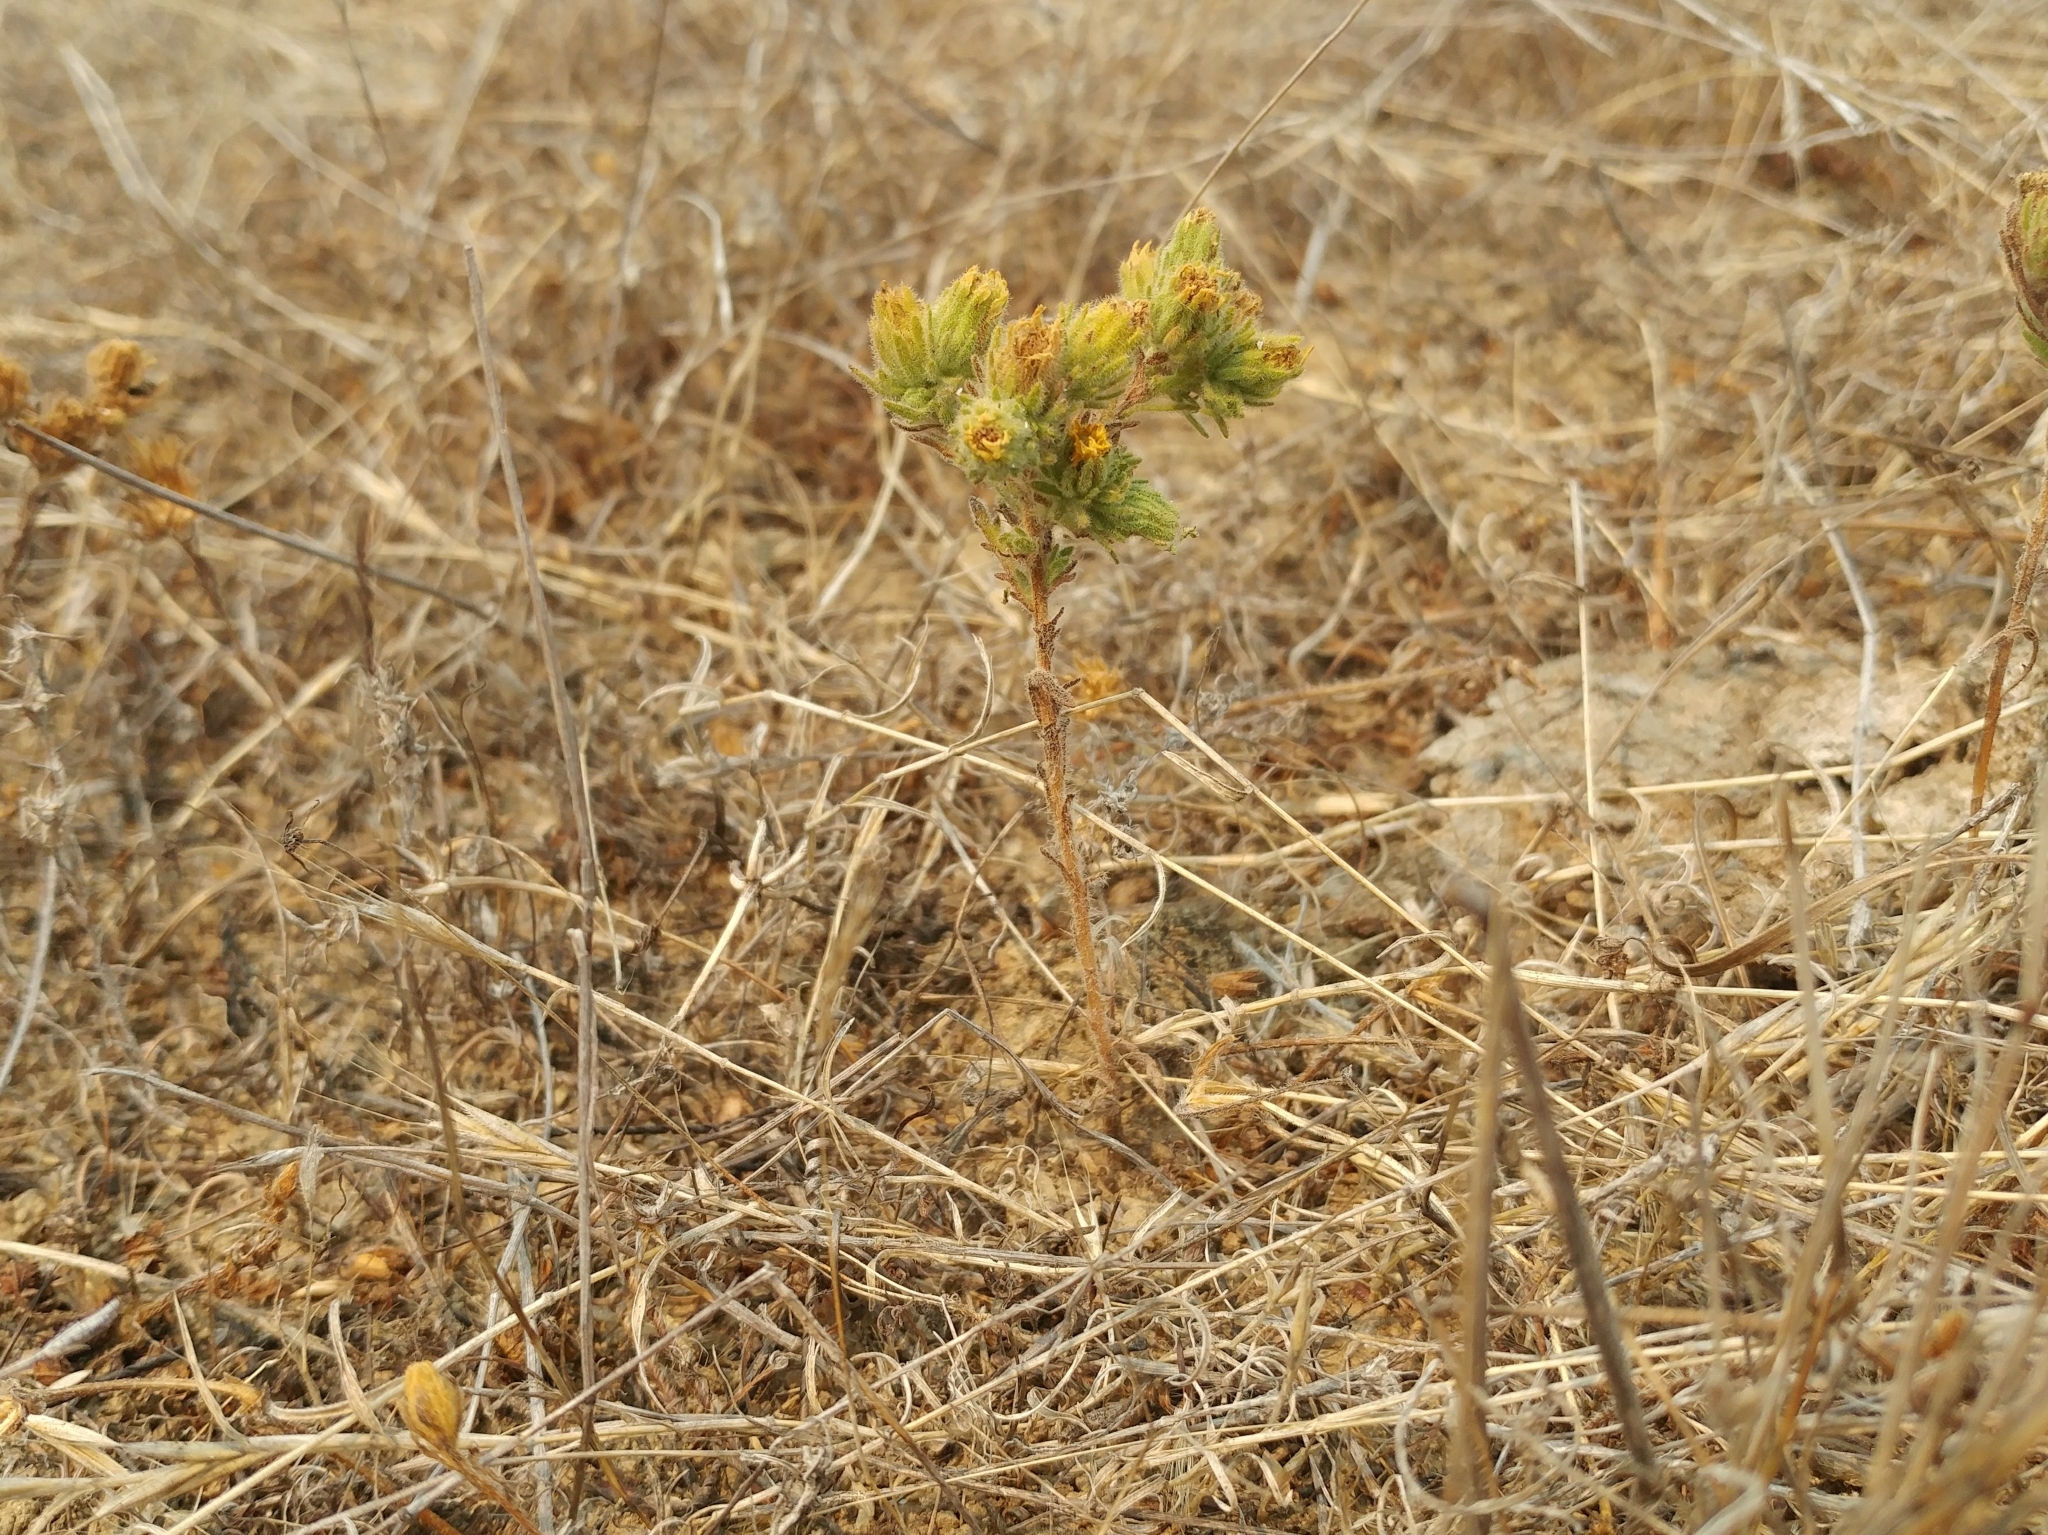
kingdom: Plantae
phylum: Tracheophyta
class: Magnoliopsida
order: Asterales
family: Asteraceae
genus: Deinandra
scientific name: Deinandra increscens
